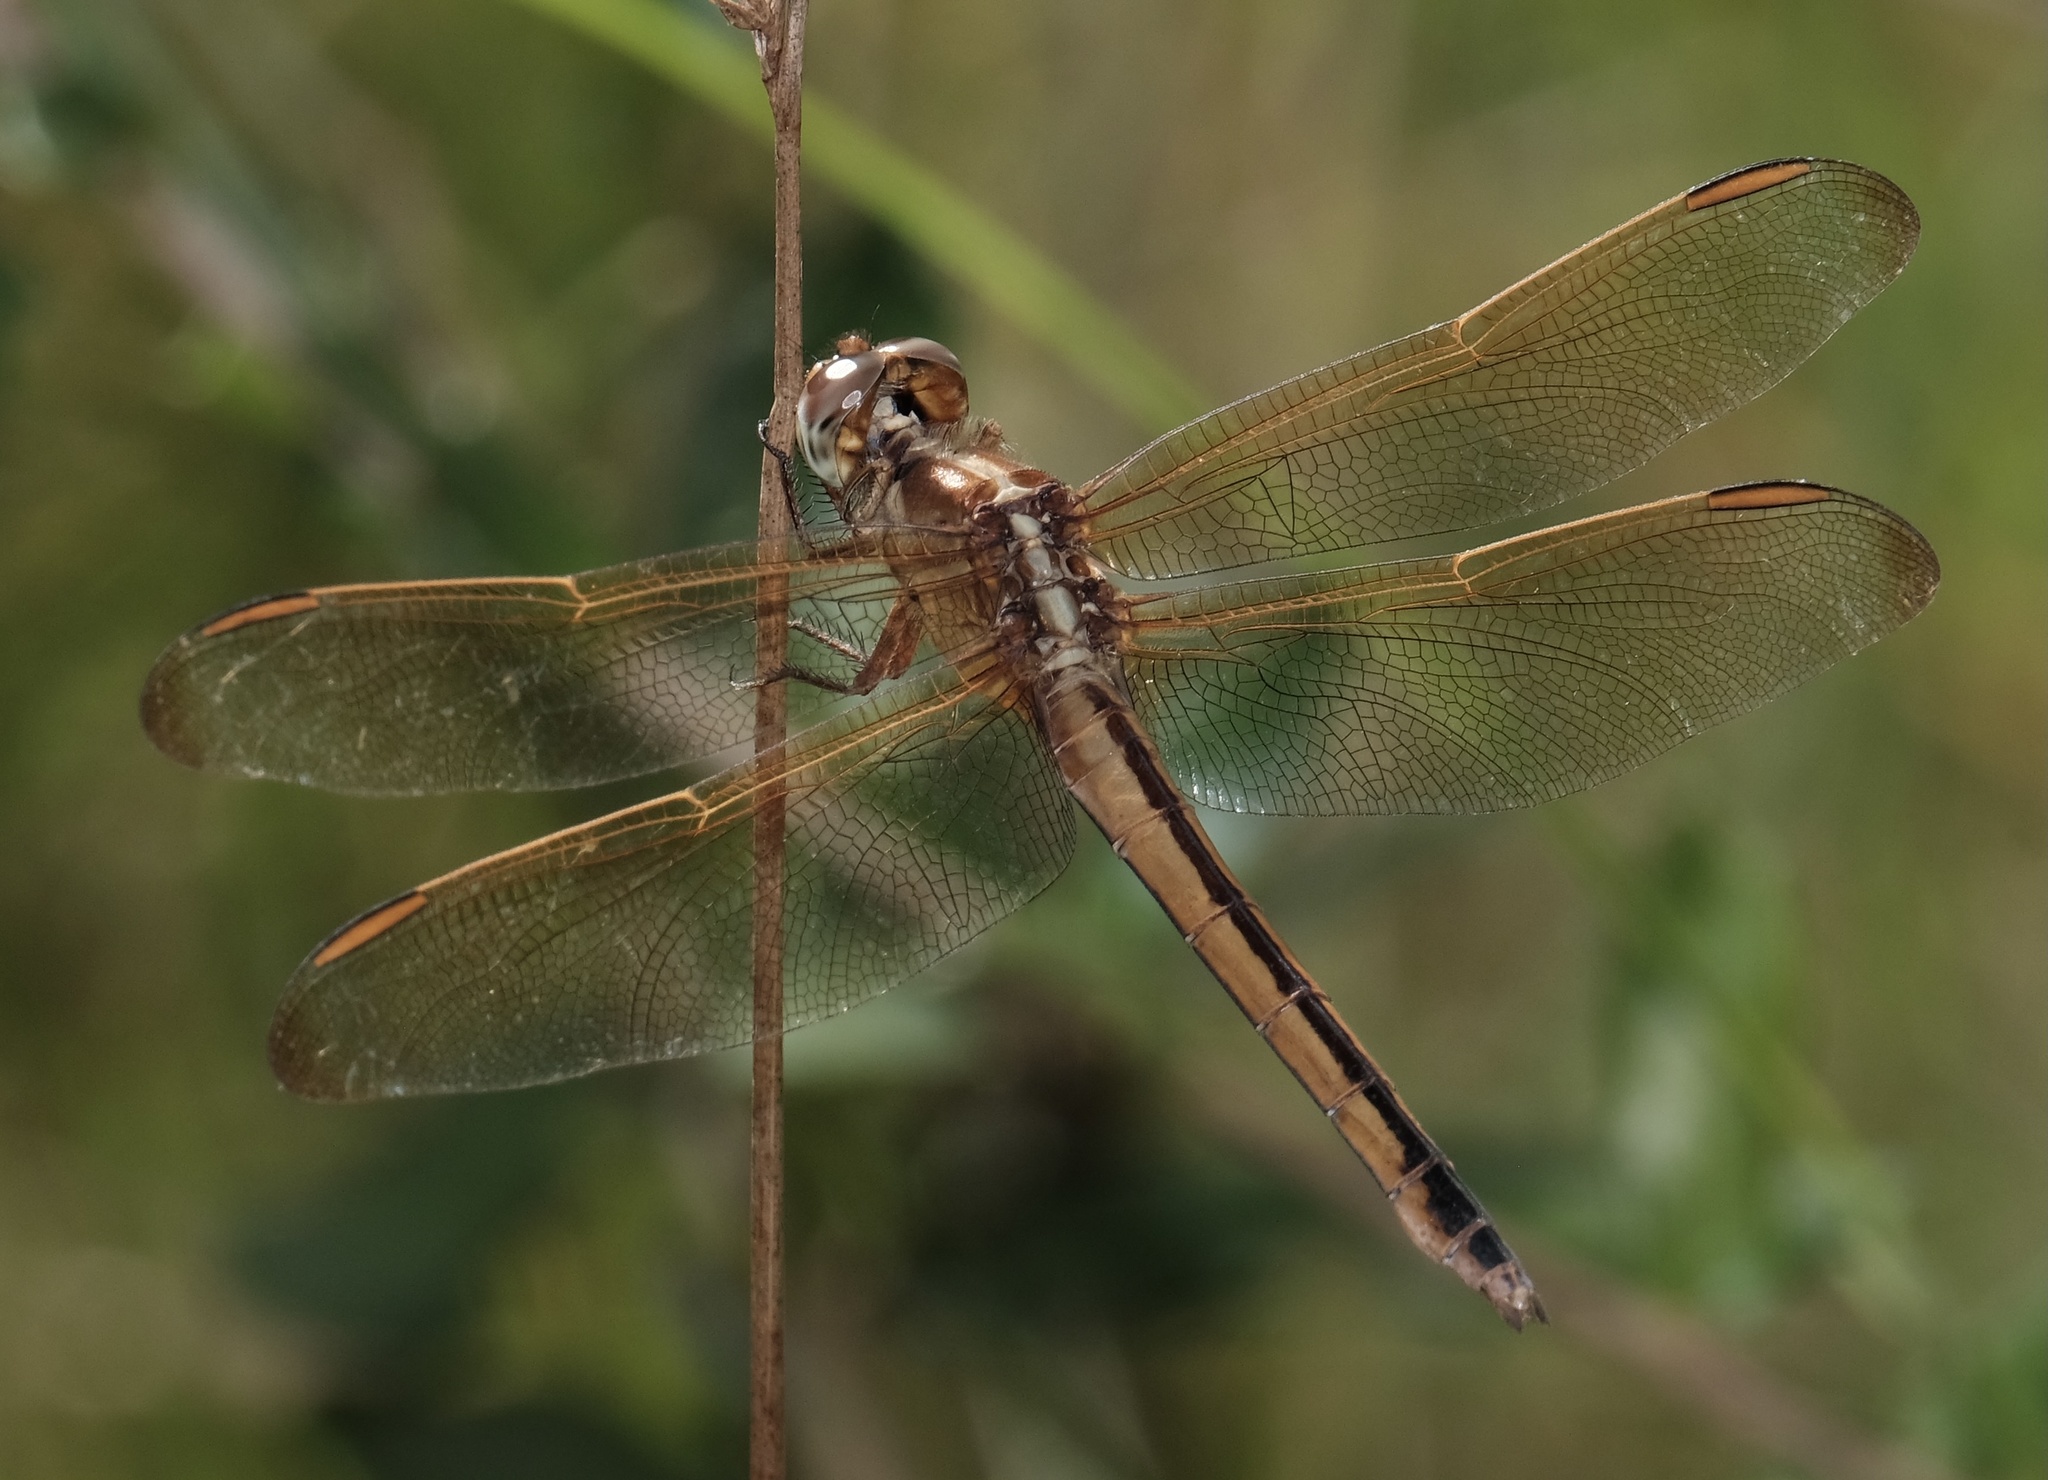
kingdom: Animalia
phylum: Arthropoda
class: Insecta
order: Odonata
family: Libellulidae
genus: Libellula
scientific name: Libellula needhami
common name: Needham's skimmer
